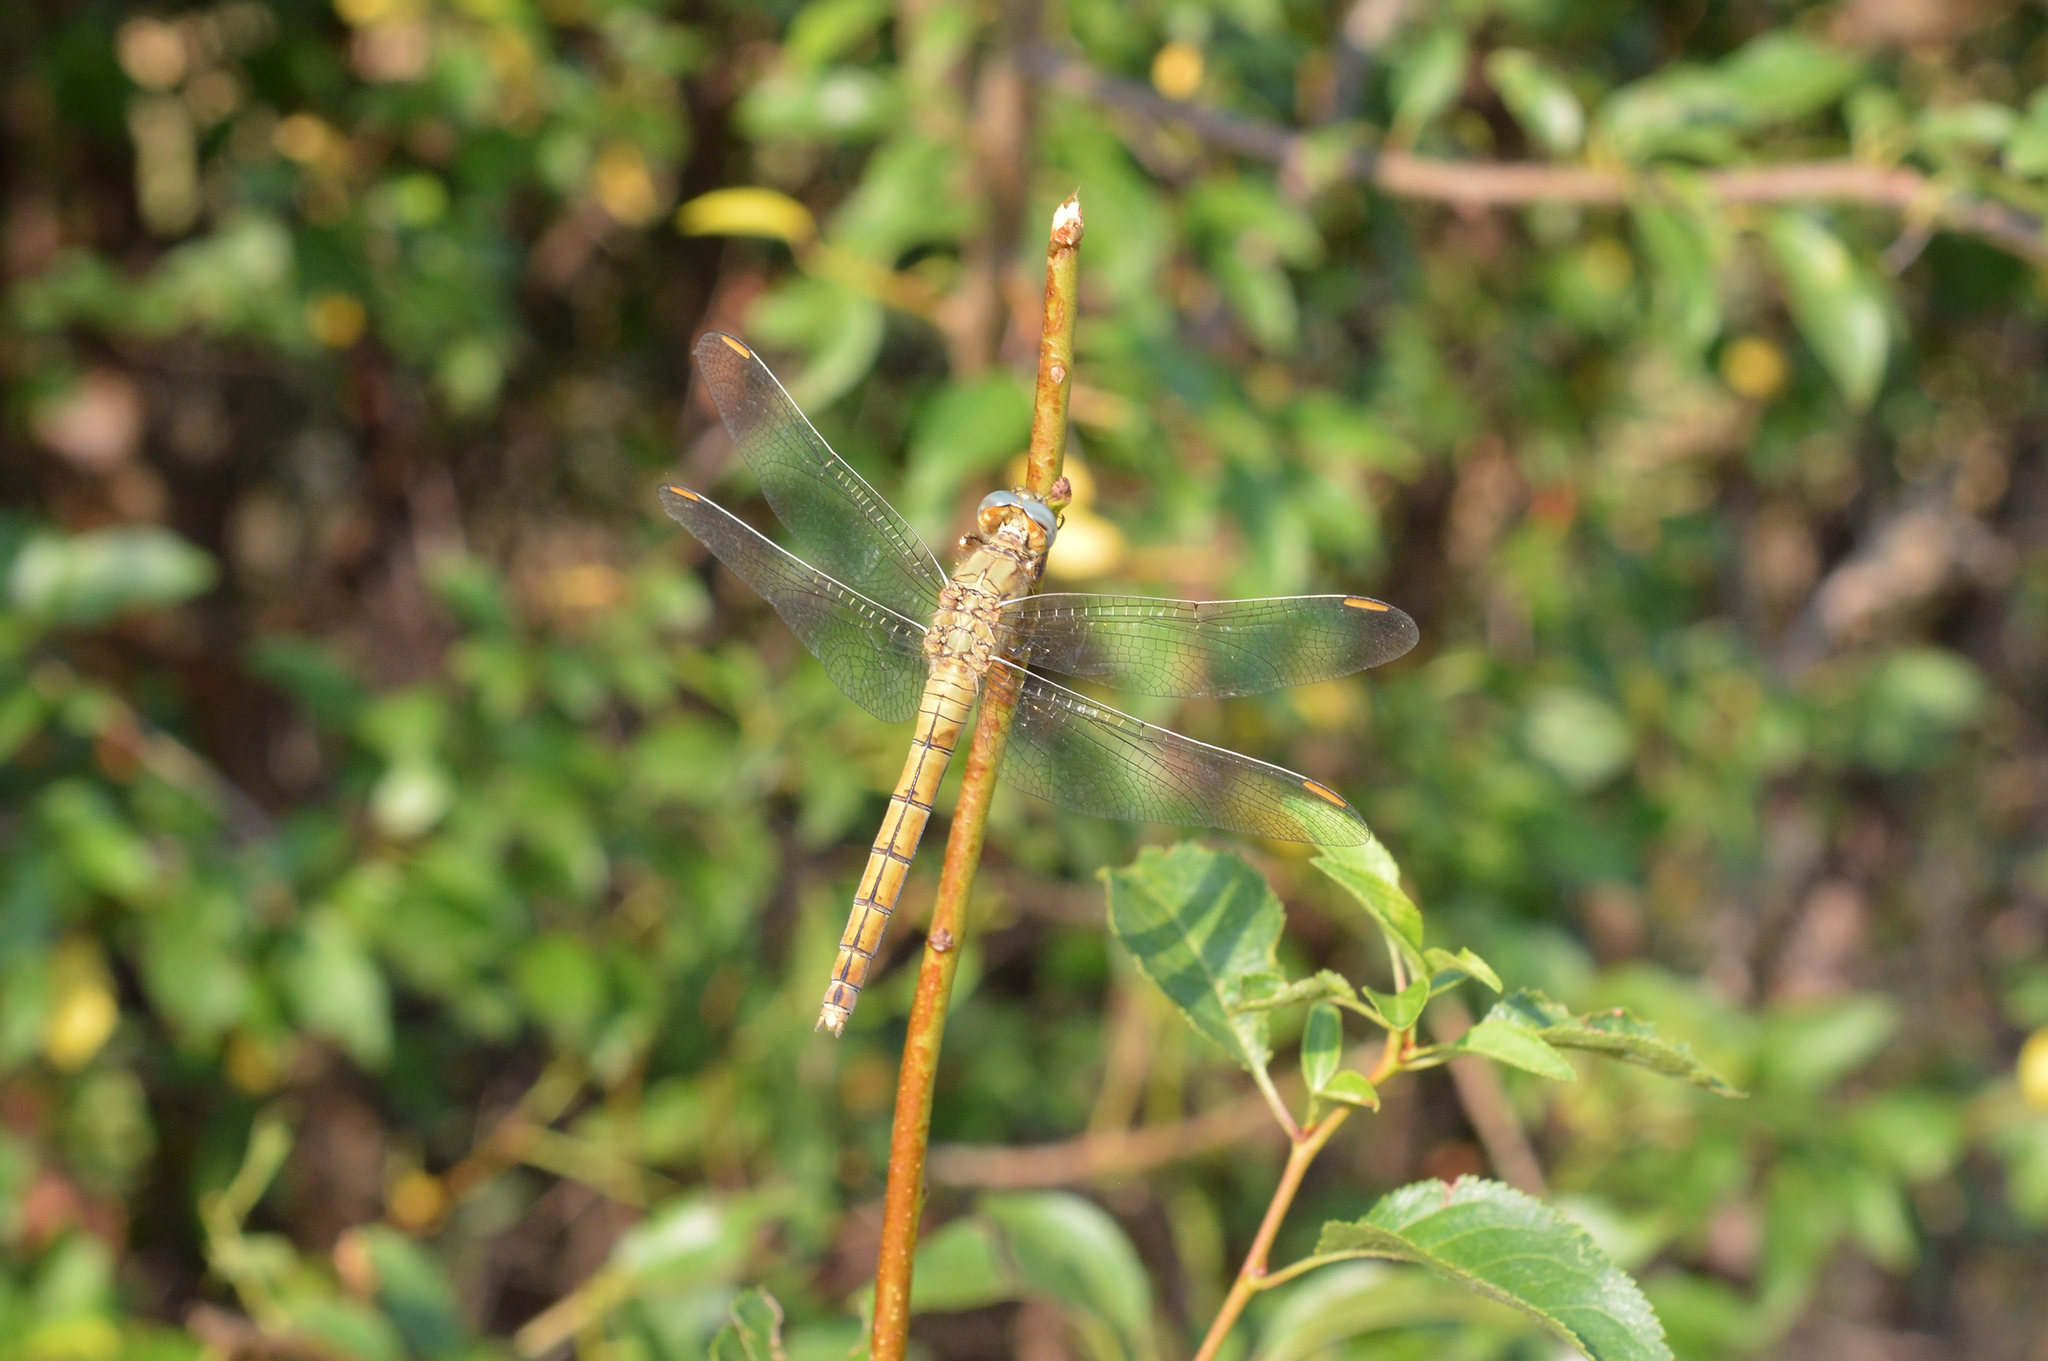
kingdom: Animalia
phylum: Arthropoda
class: Insecta
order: Odonata
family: Libellulidae
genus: Orthetrum
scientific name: Orthetrum coerulescens
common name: Keeled skimmer
